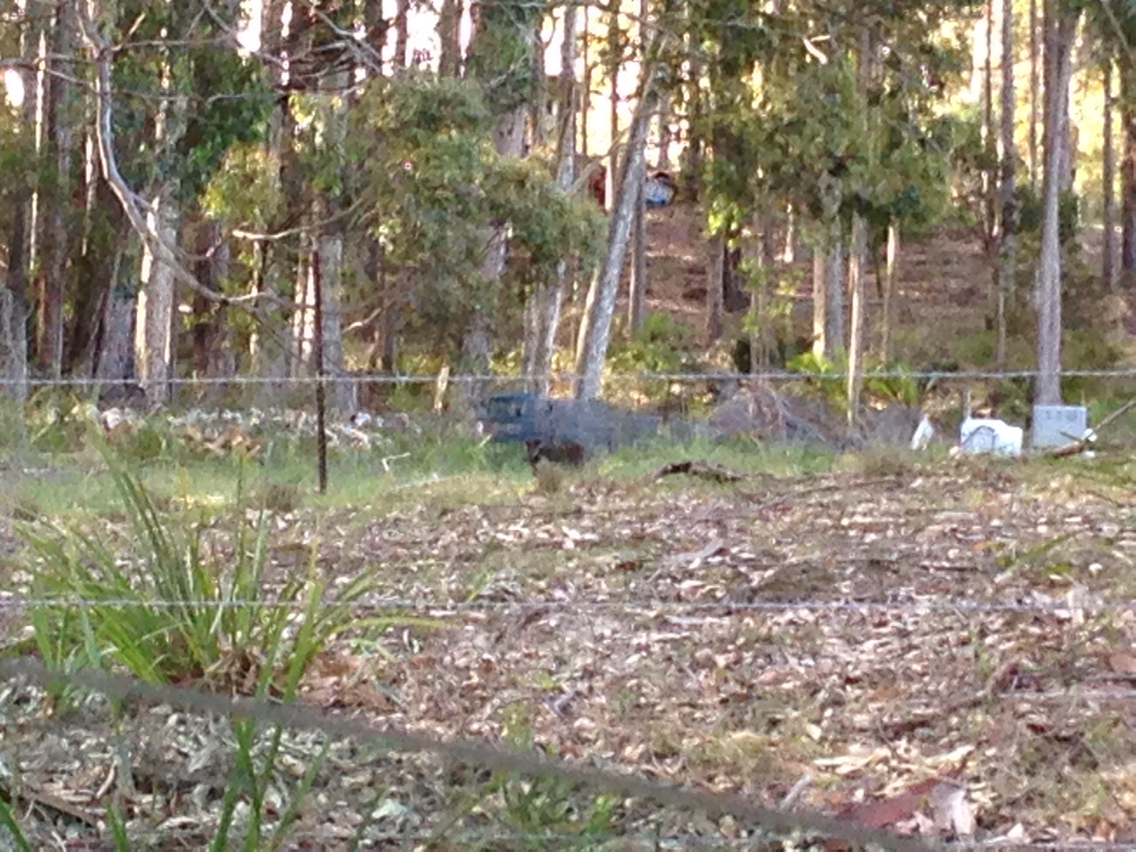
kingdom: Animalia
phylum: Chordata
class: Mammalia
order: Diprotodontia
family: Macropodidae
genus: Wallabia
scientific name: Wallabia bicolor
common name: Swamp wallaby
